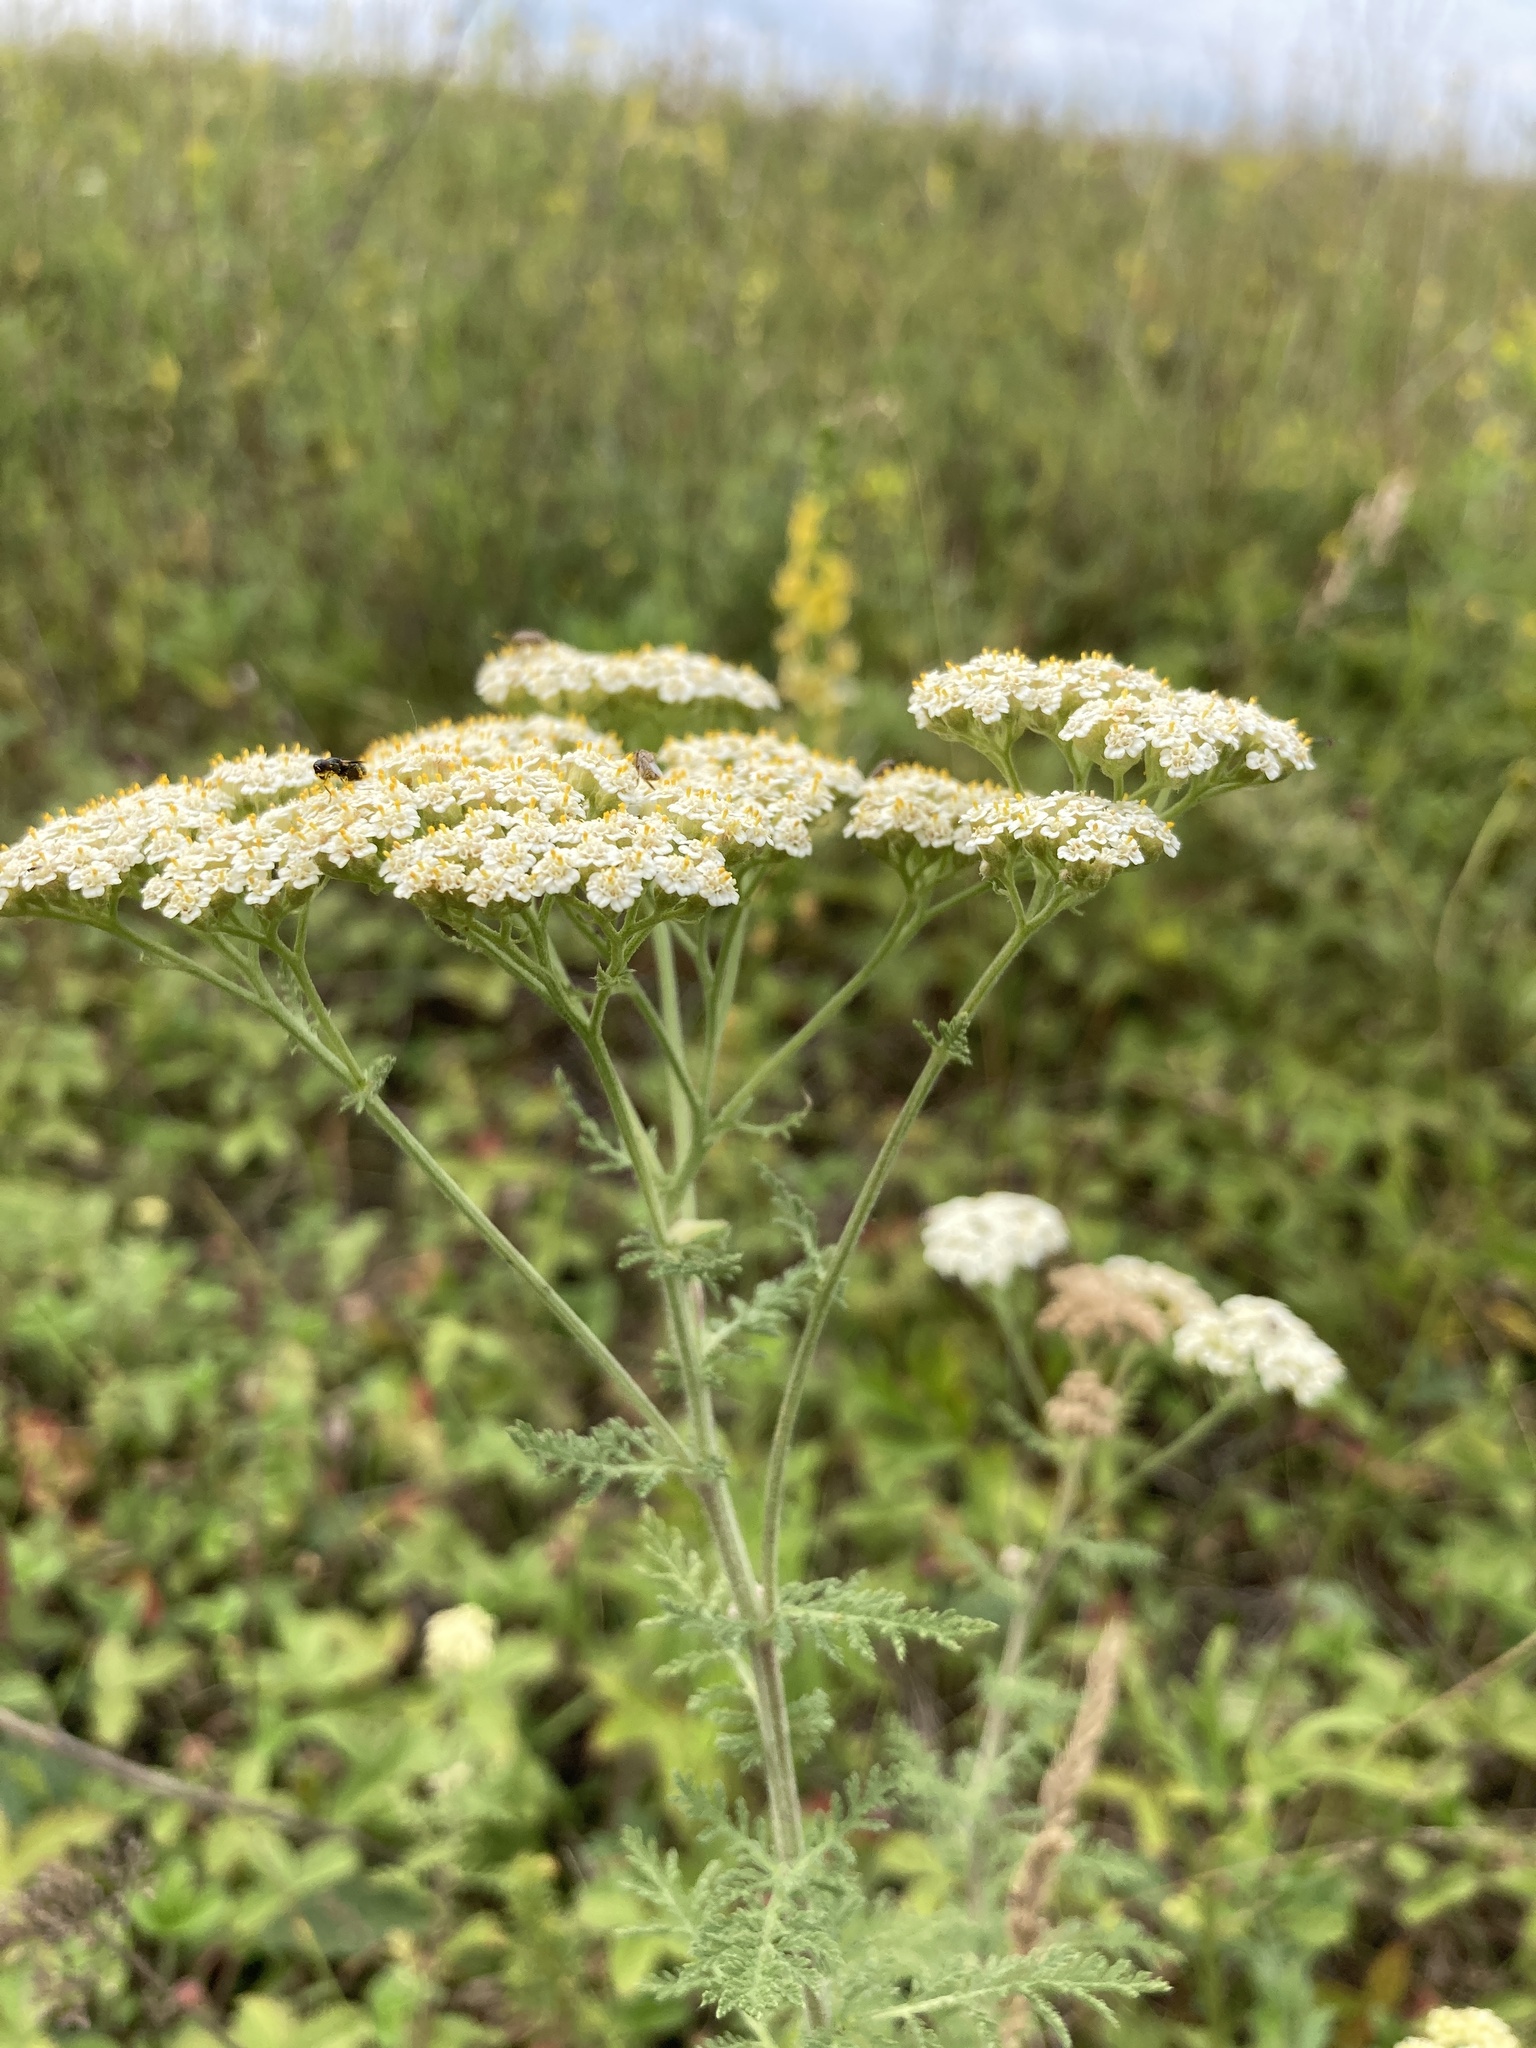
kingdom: Plantae
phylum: Tracheophyta
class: Magnoliopsida
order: Asterales
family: Asteraceae
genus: Achillea
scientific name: Achillea nobilis
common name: Noble yarrow
